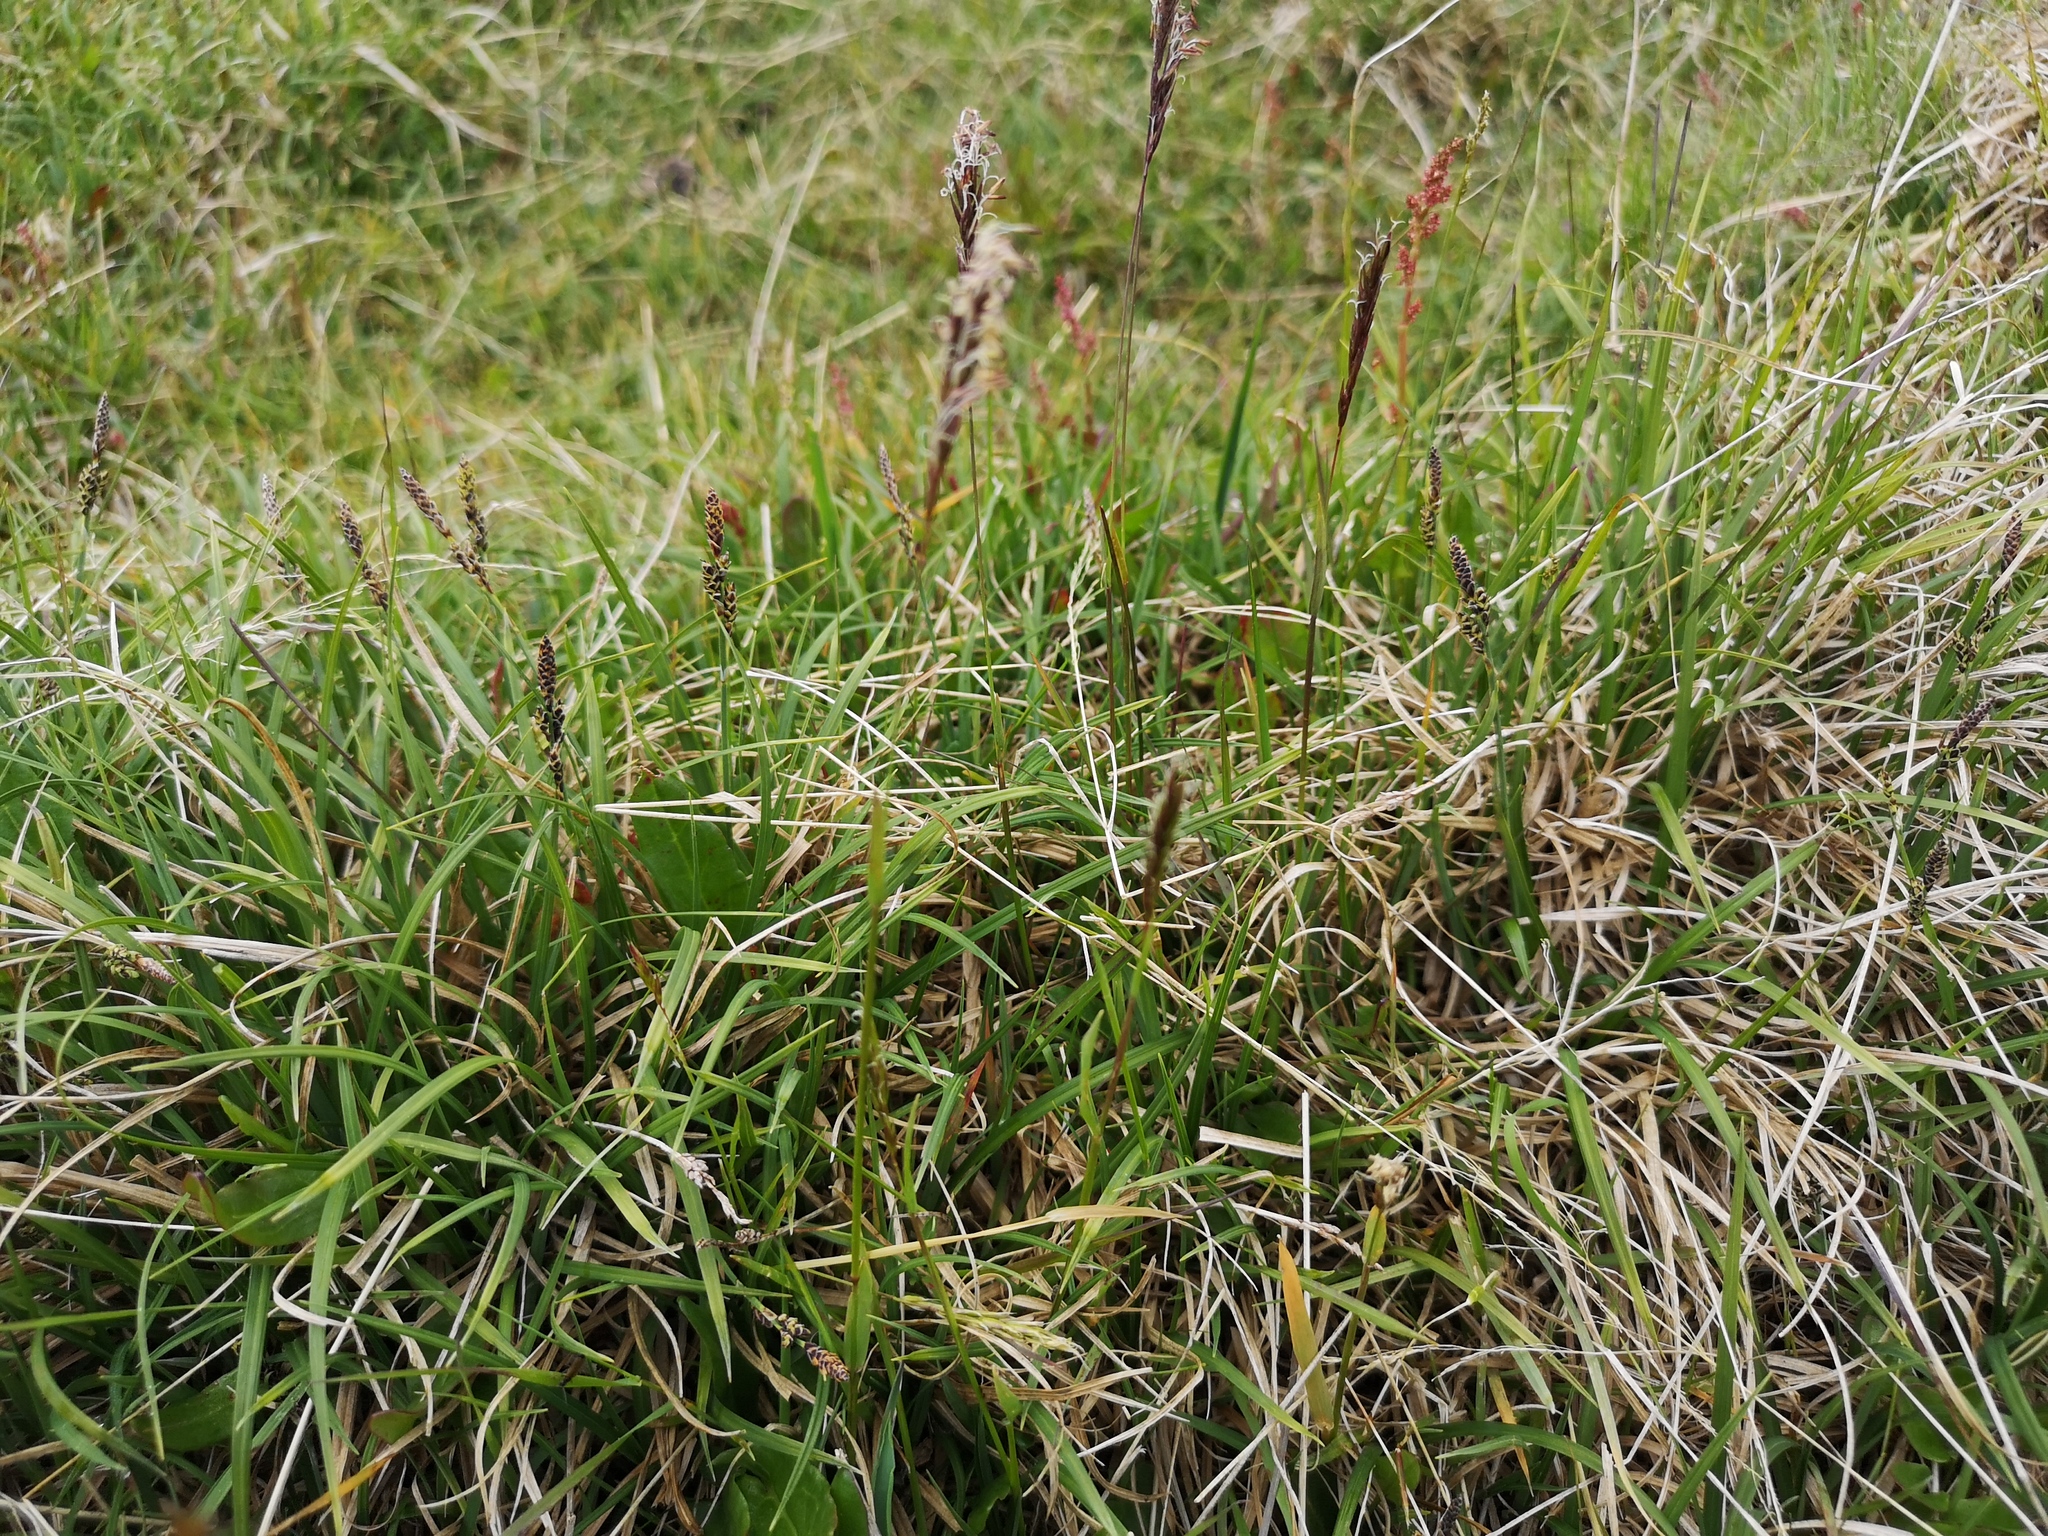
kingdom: Plantae
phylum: Tracheophyta
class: Liliopsida
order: Poales
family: Poaceae
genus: Anthoxanthum
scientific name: Anthoxanthum odoratum
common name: Sweet vernalgrass
